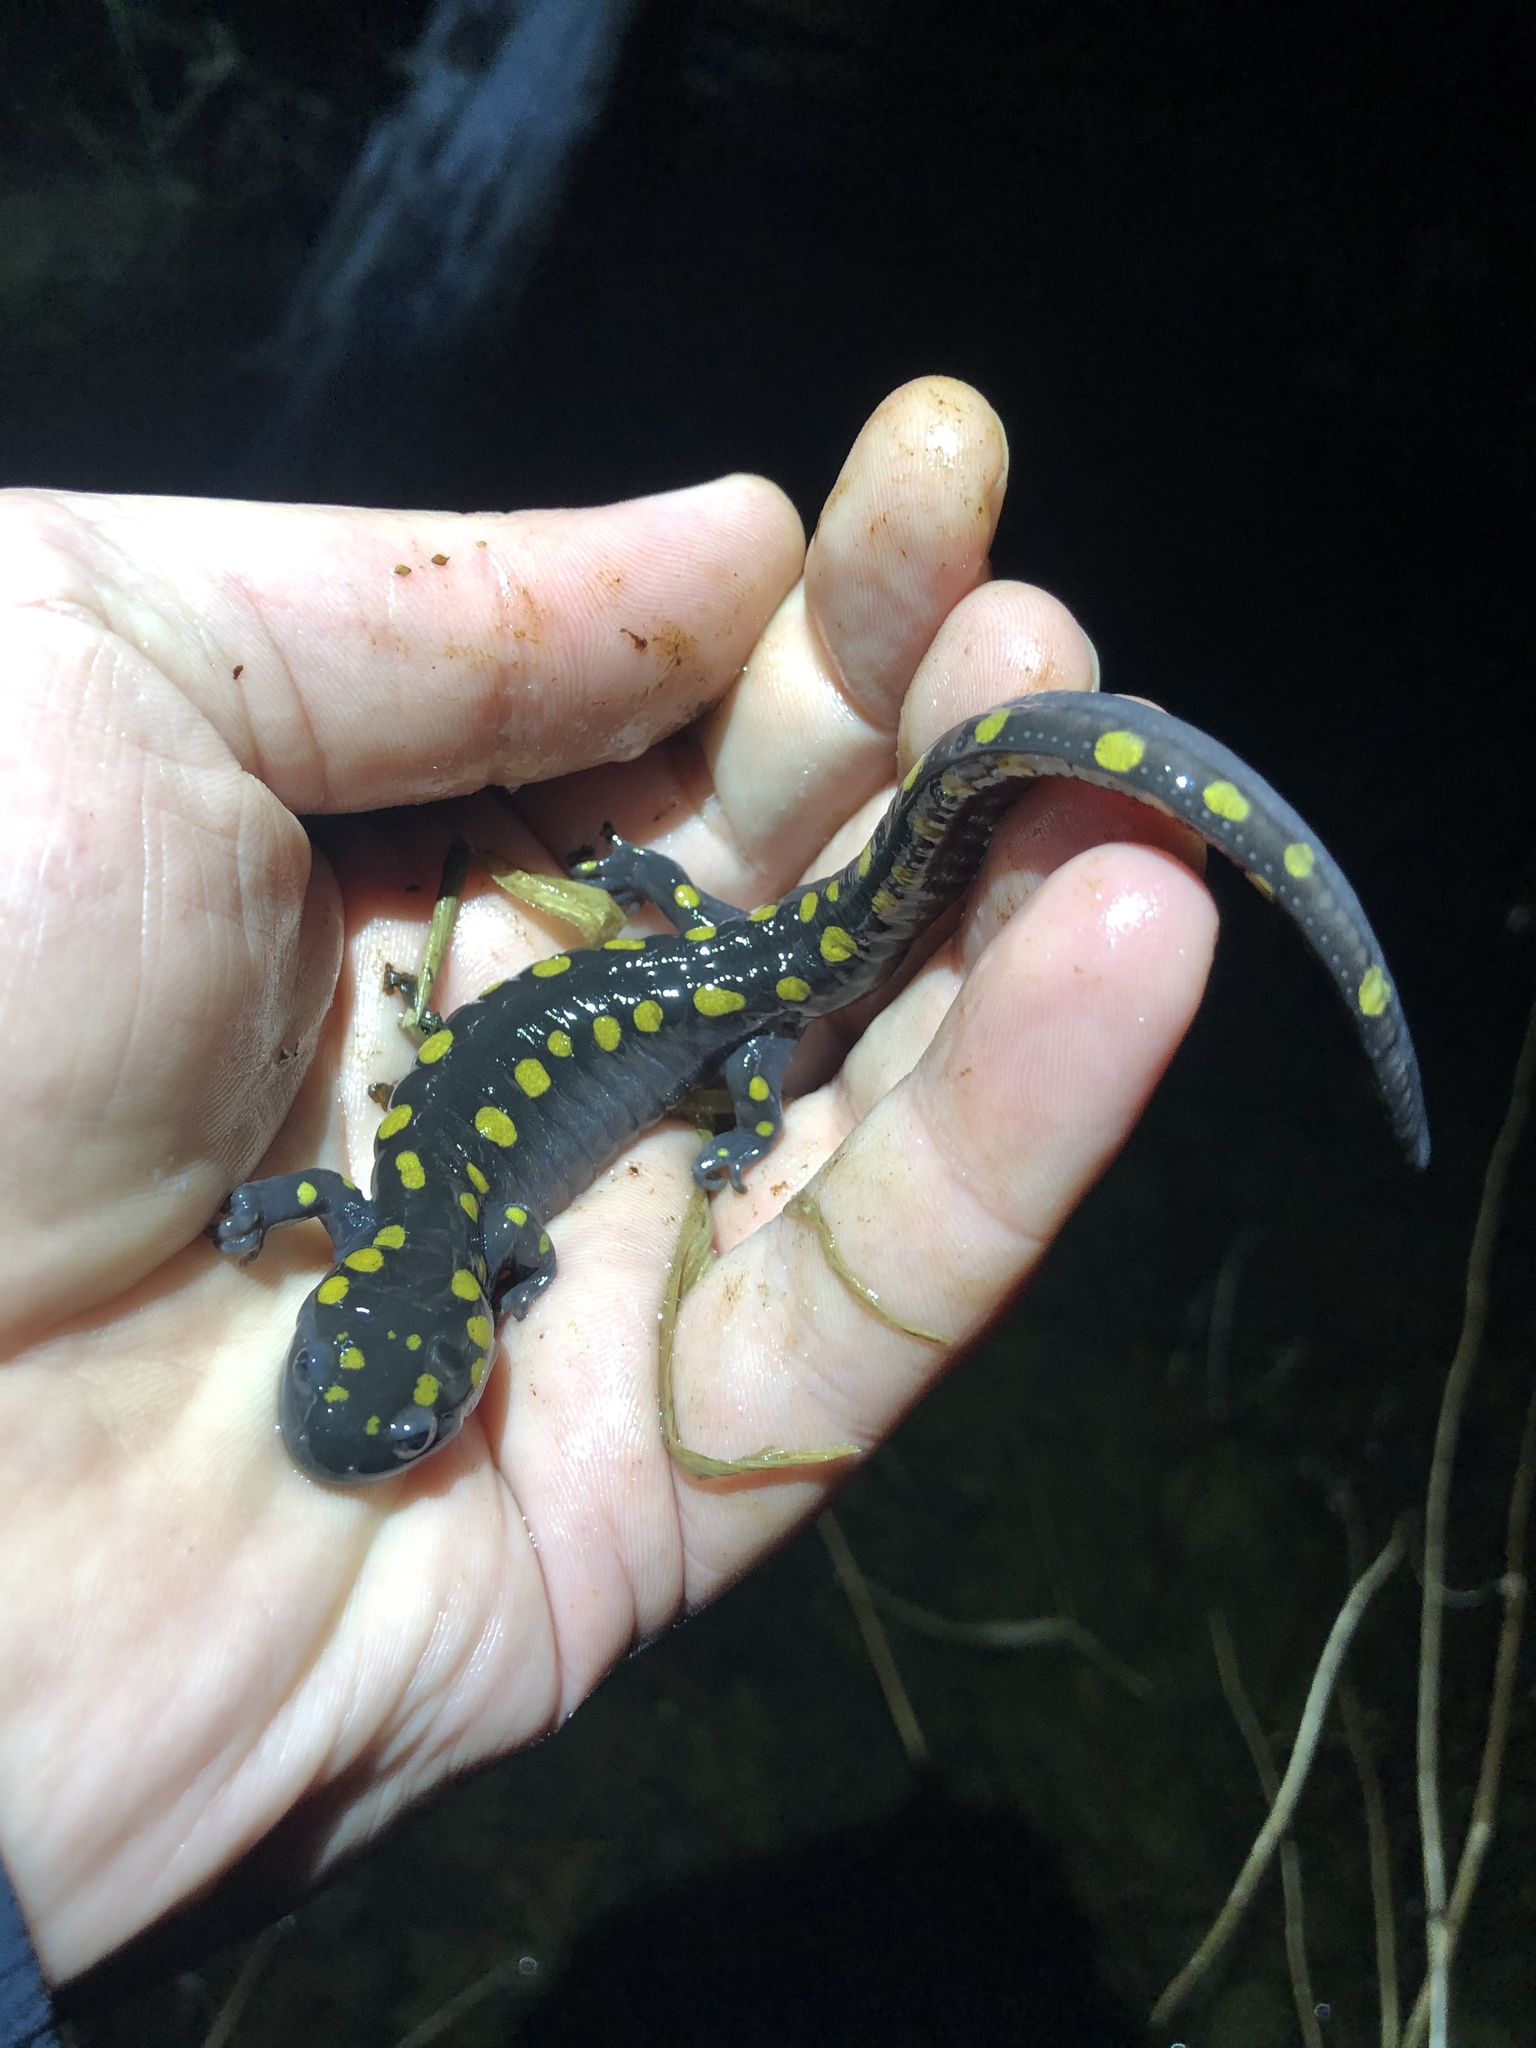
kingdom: Animalia
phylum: Chordata
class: Amphibia
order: Caudata
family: Ambystomatidae
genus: Ambystoma
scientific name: Ambystoma maculatum
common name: Spotted salamander
